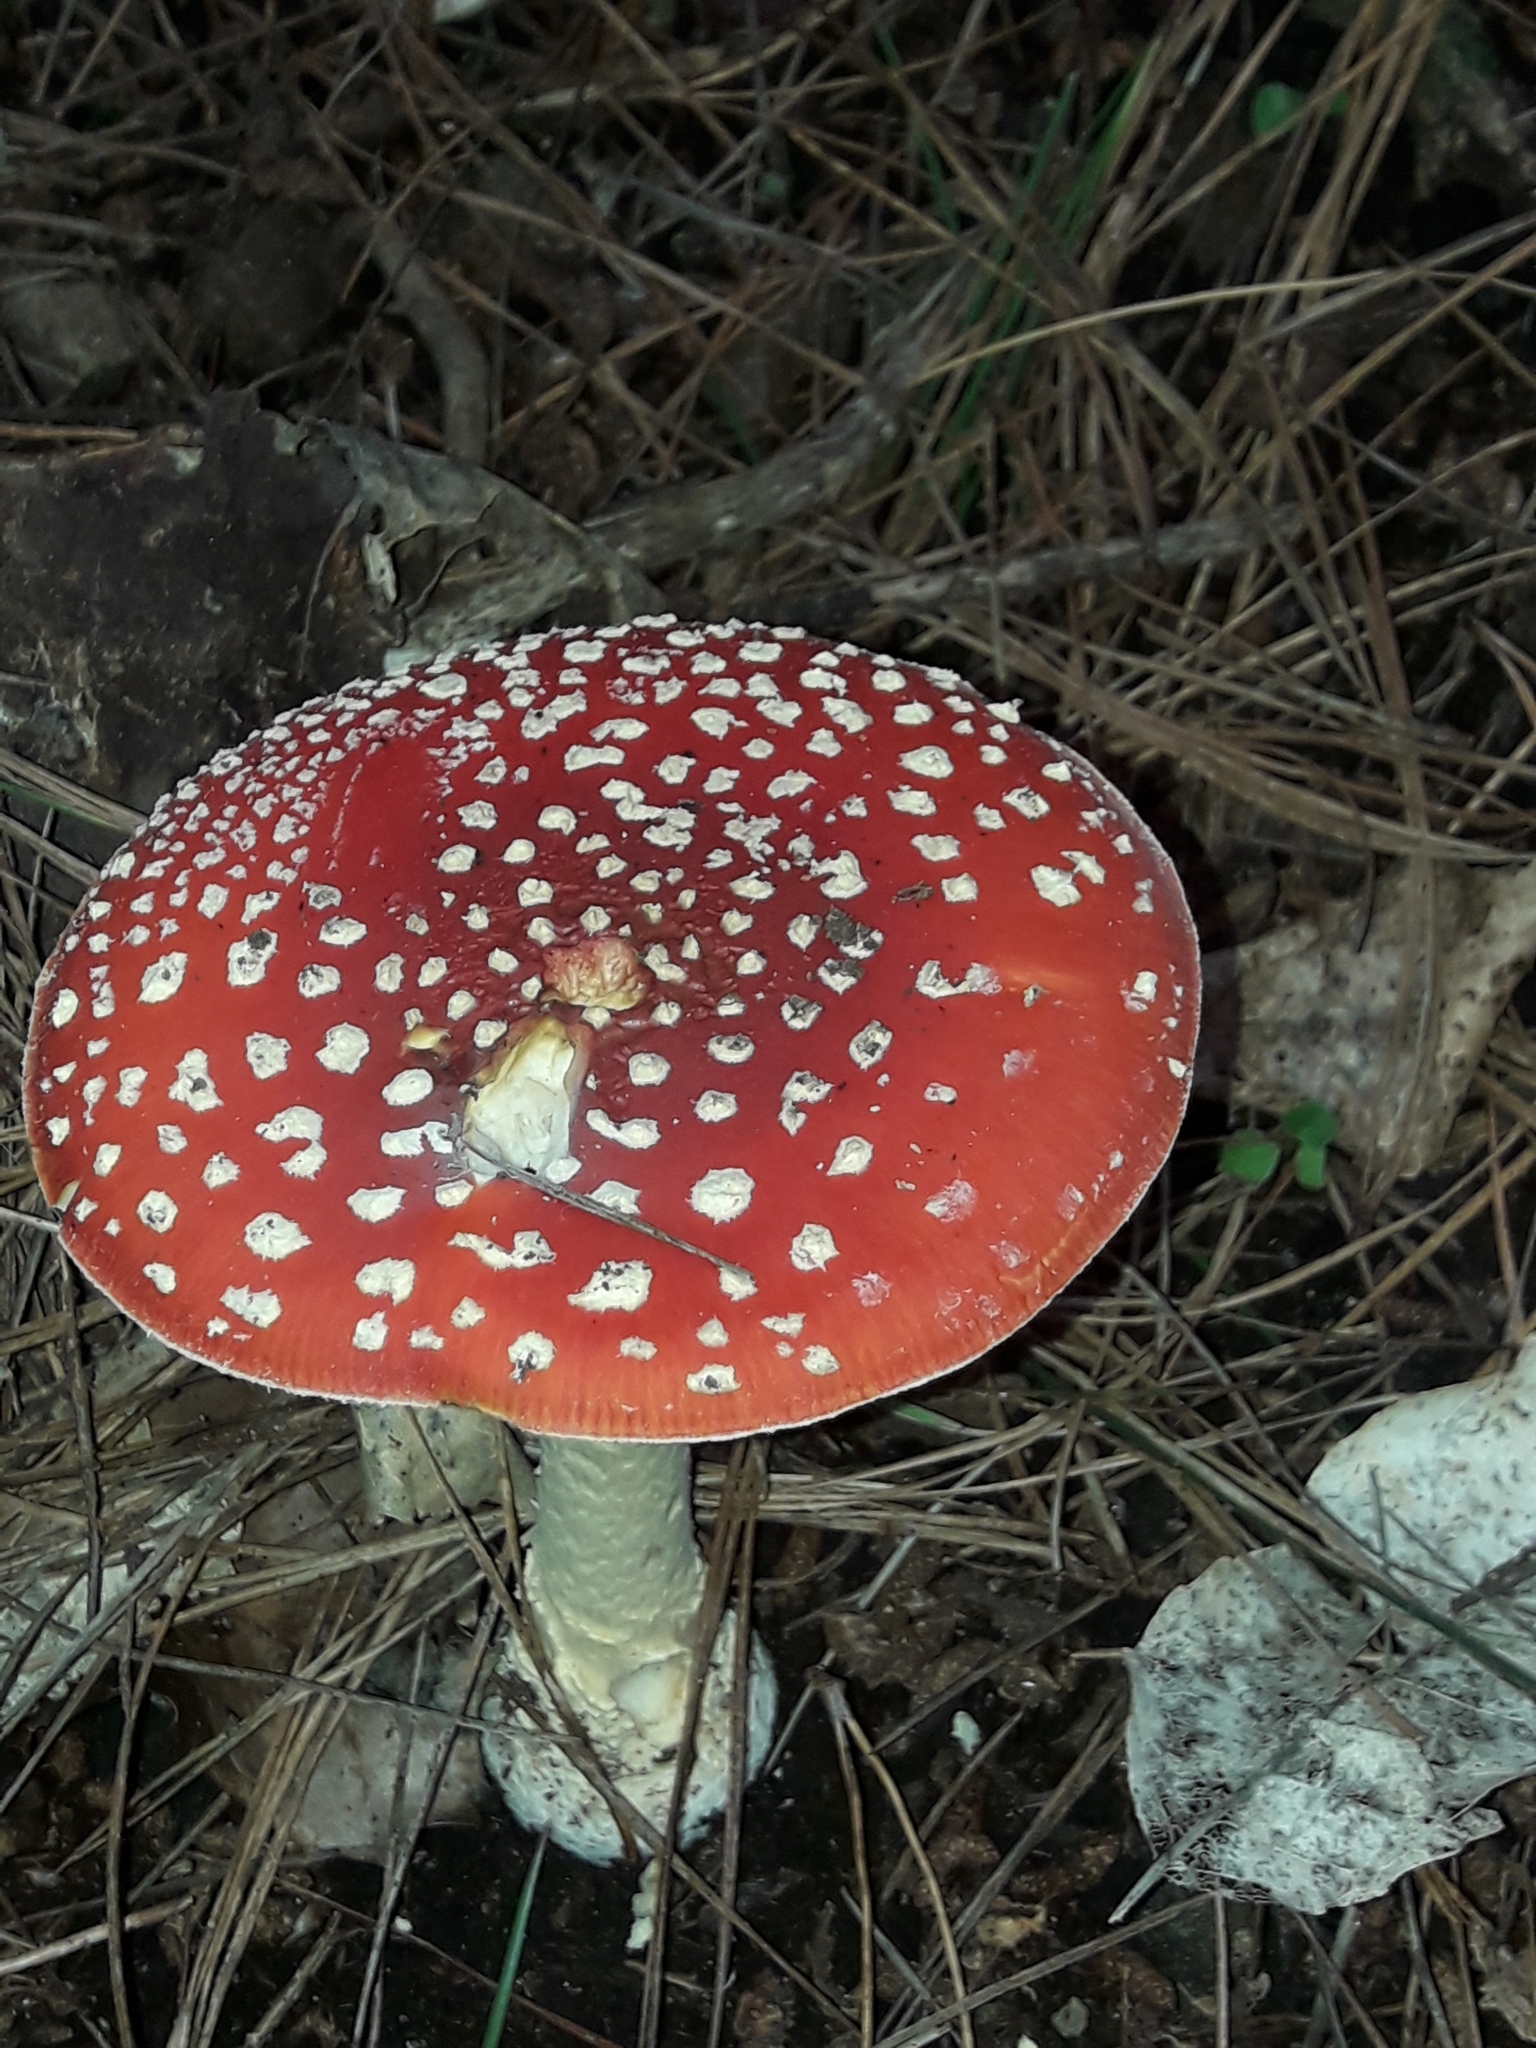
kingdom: Fungi
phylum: Basidiomycota
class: Agaricomycetes
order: Agaricales
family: Amanitaceae
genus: Amanita
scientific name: Amanita muscaria
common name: Fly agaric
